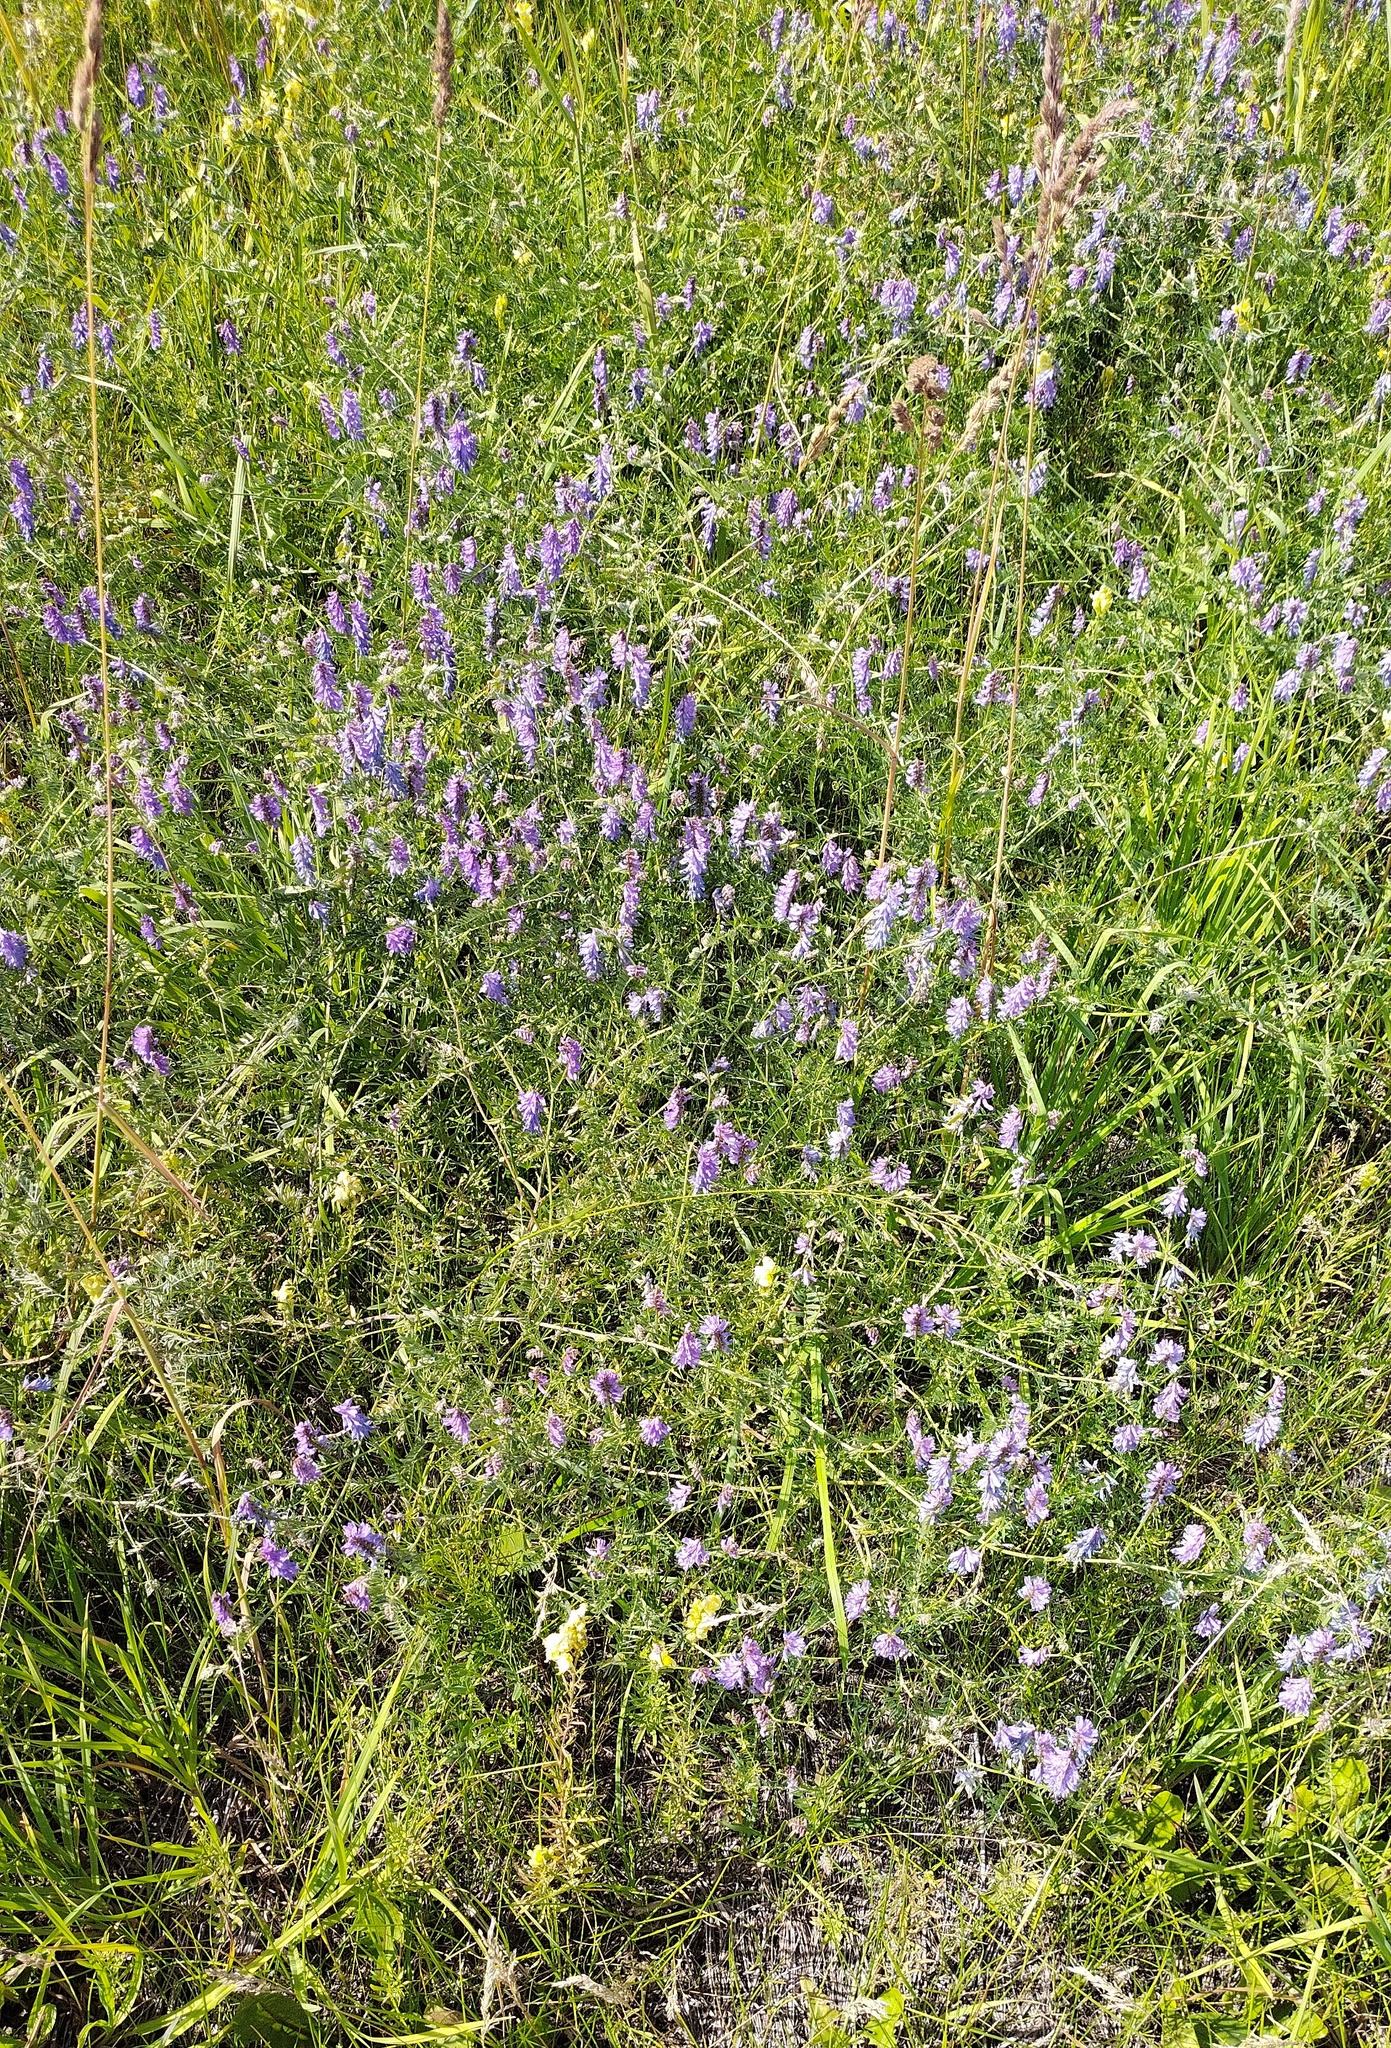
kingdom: Plantae
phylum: Tracheophyta
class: Magnoliopsida
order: Fabales
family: Fabaceae
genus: Vicia
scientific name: Vicia cracca
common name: Bird vetch
